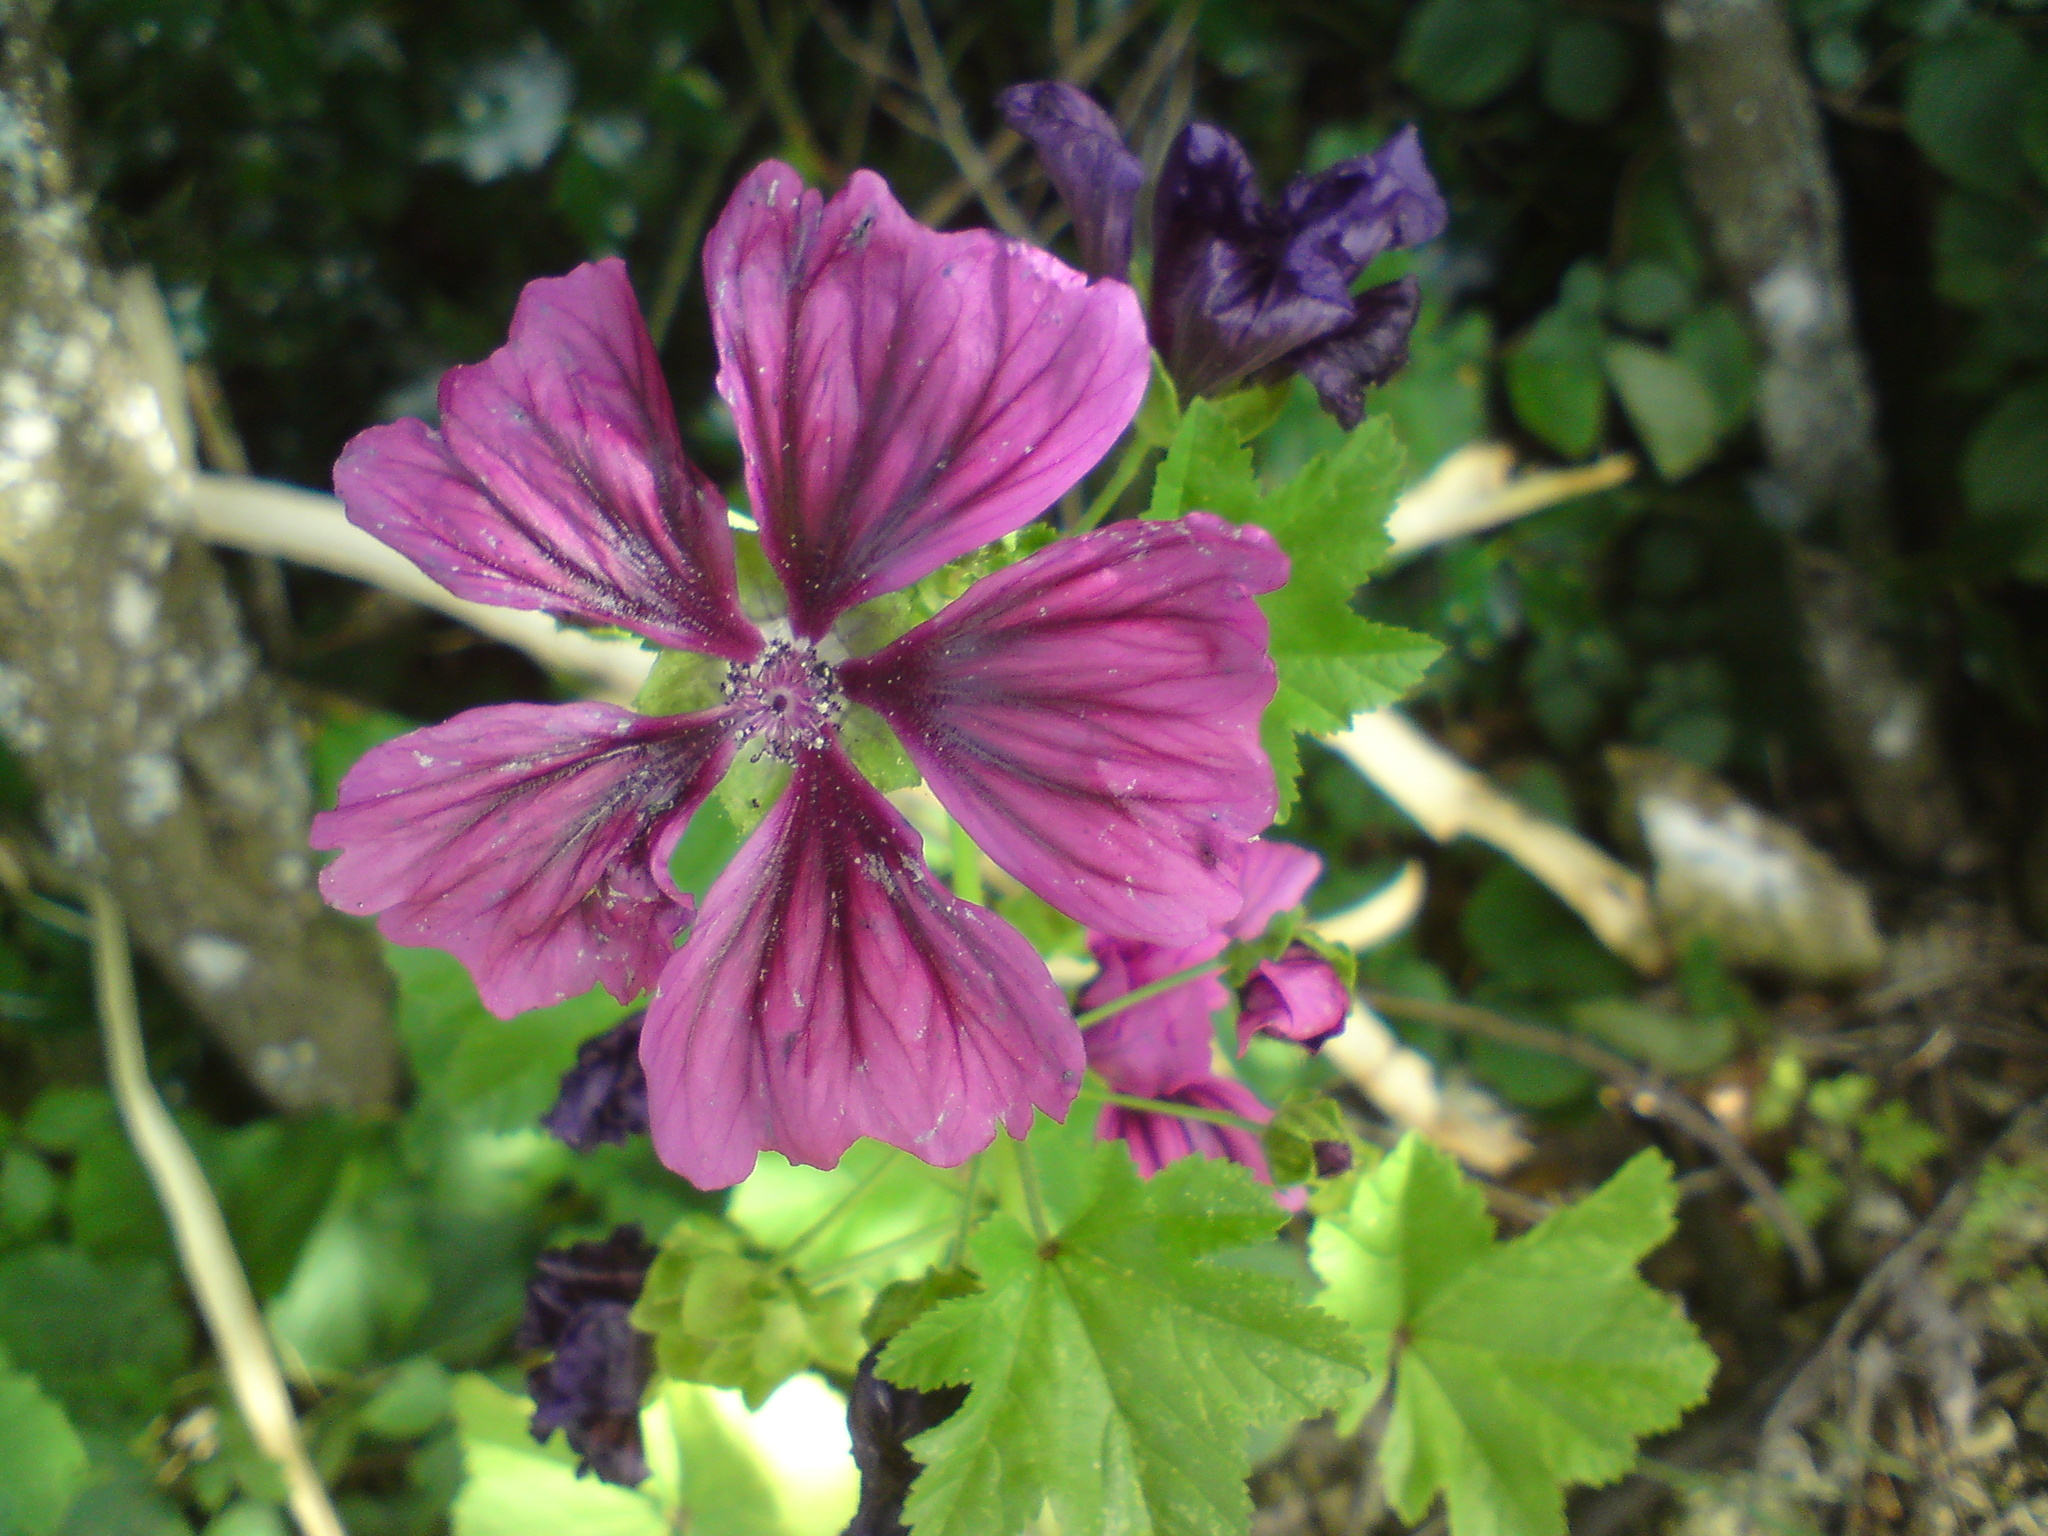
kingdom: Plantae
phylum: Tracheophyta
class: Magnoliopsida
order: Malvales
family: Malvaceae
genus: Malva
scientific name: Malva sylvestris
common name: Common mallow
